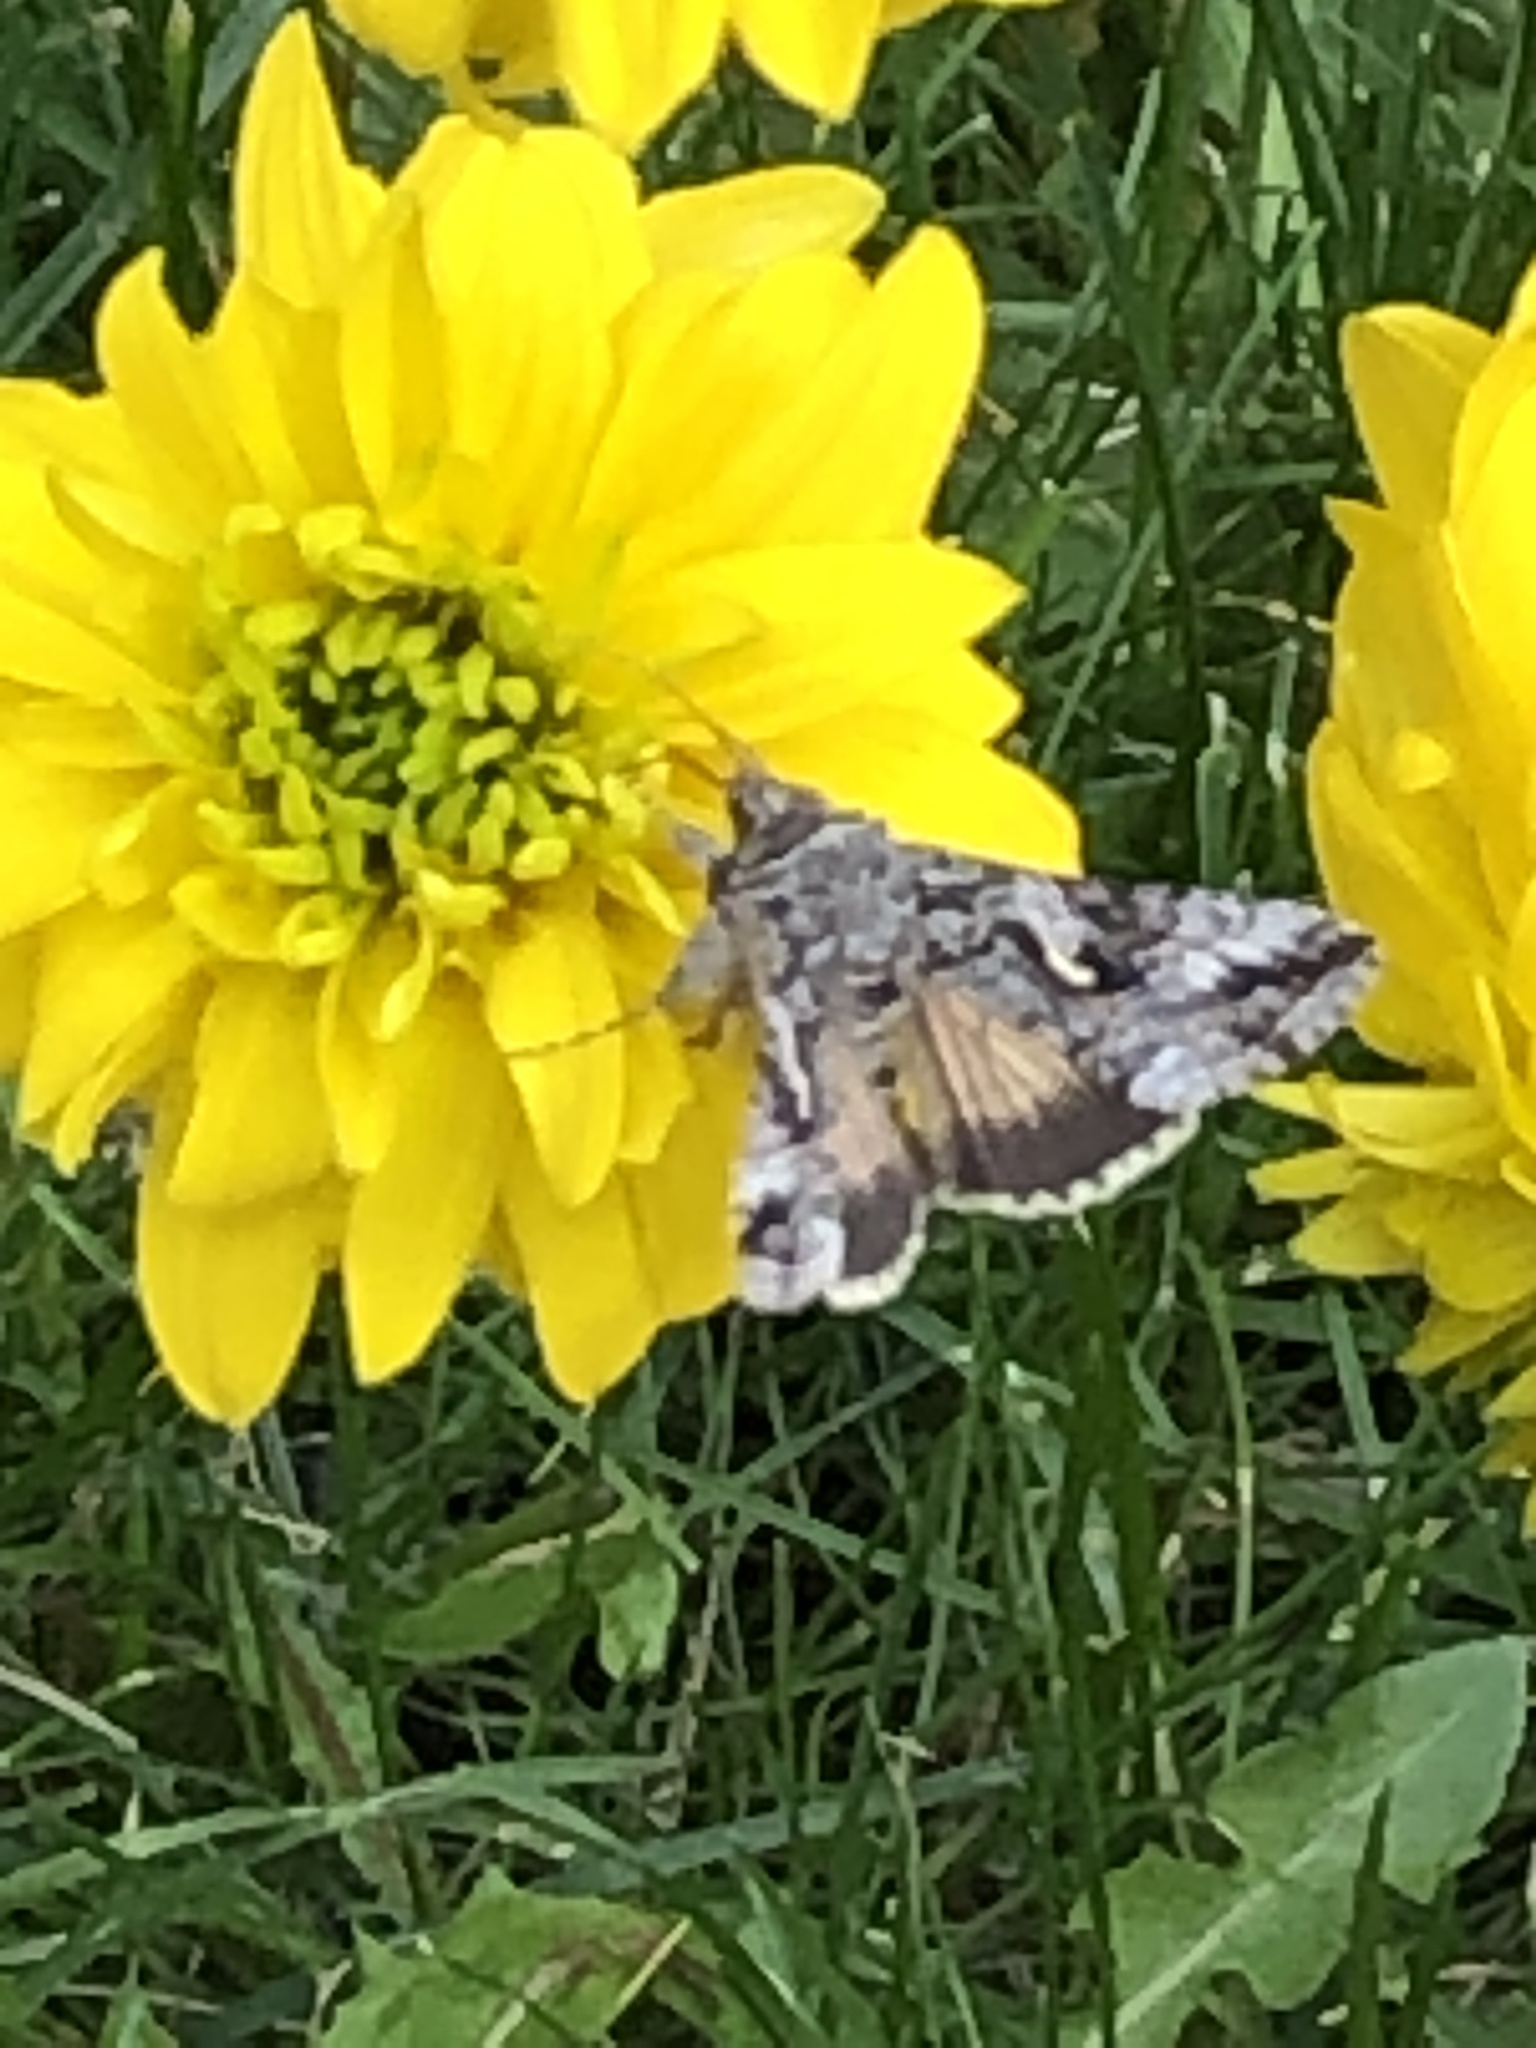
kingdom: Animalia
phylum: Arthropoda
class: Insecta
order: Lepidoptera
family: Noctuidae
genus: Autographa
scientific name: Autographa californica
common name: Alfalfa looper
